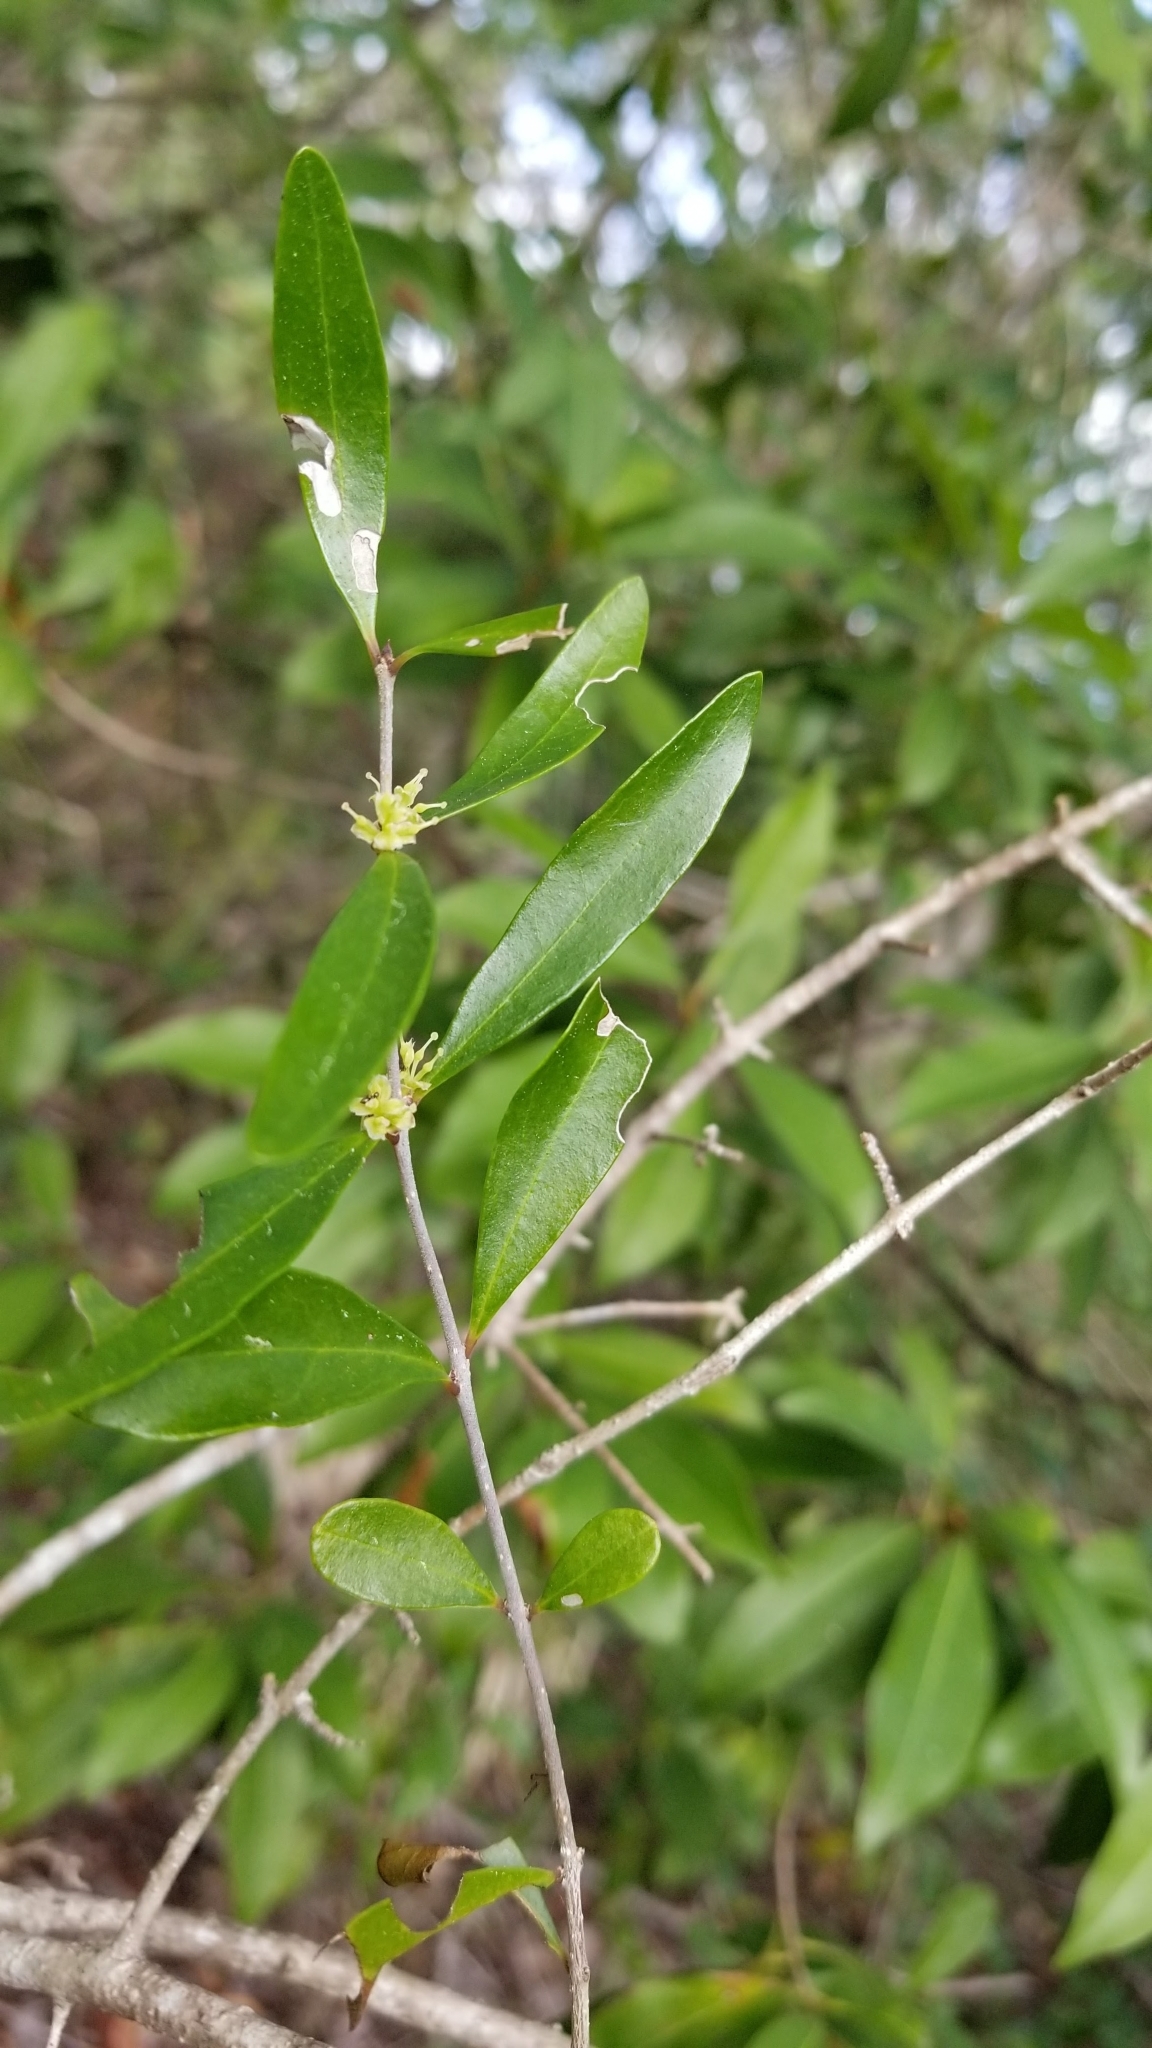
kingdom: Plantae
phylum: Tracheophyta
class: Magnoliopsida
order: Lamiales
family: Oleaceae
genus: Forestiera
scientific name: Forestiera segregata
